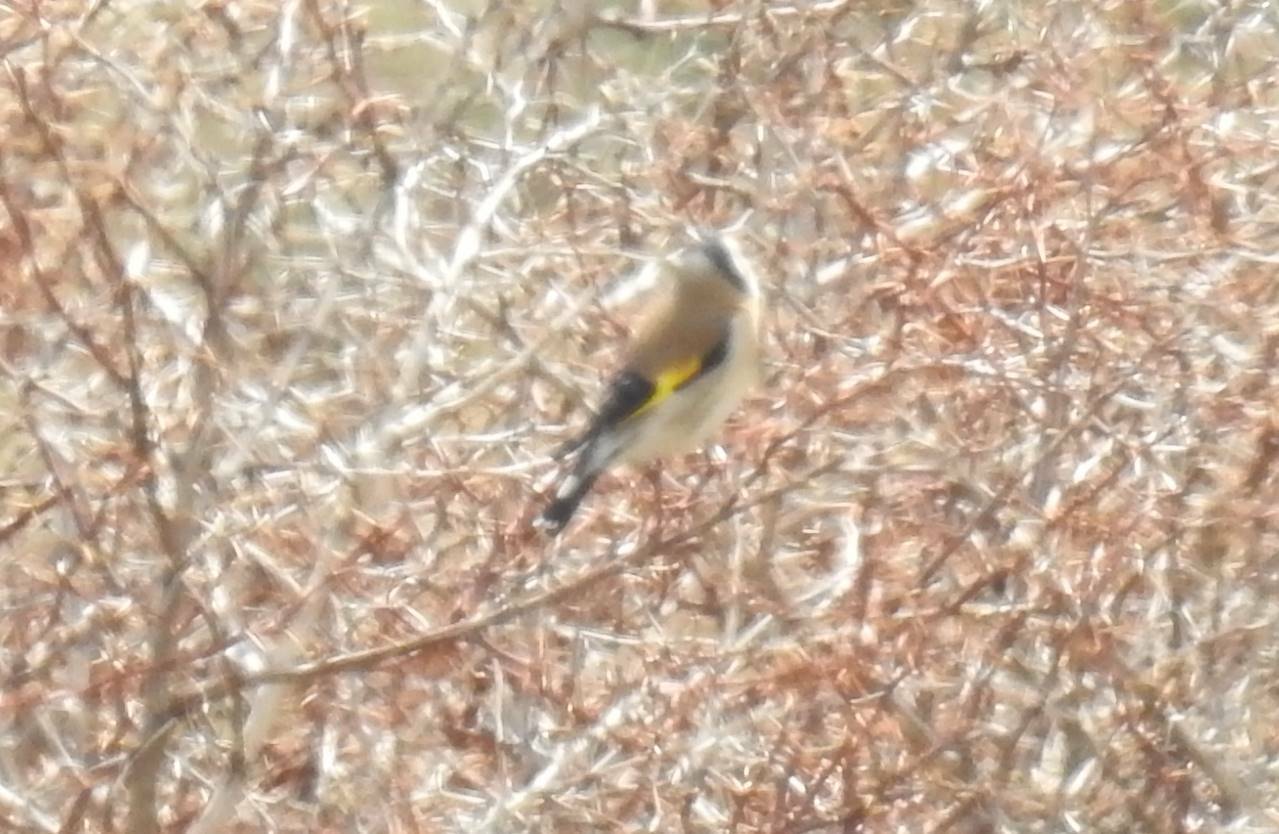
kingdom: Animalia
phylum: Chordata
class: Aves
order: Passeriformes
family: Fringillidae
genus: Carduelis
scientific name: Carduelis carduelis
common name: European goldfinch
